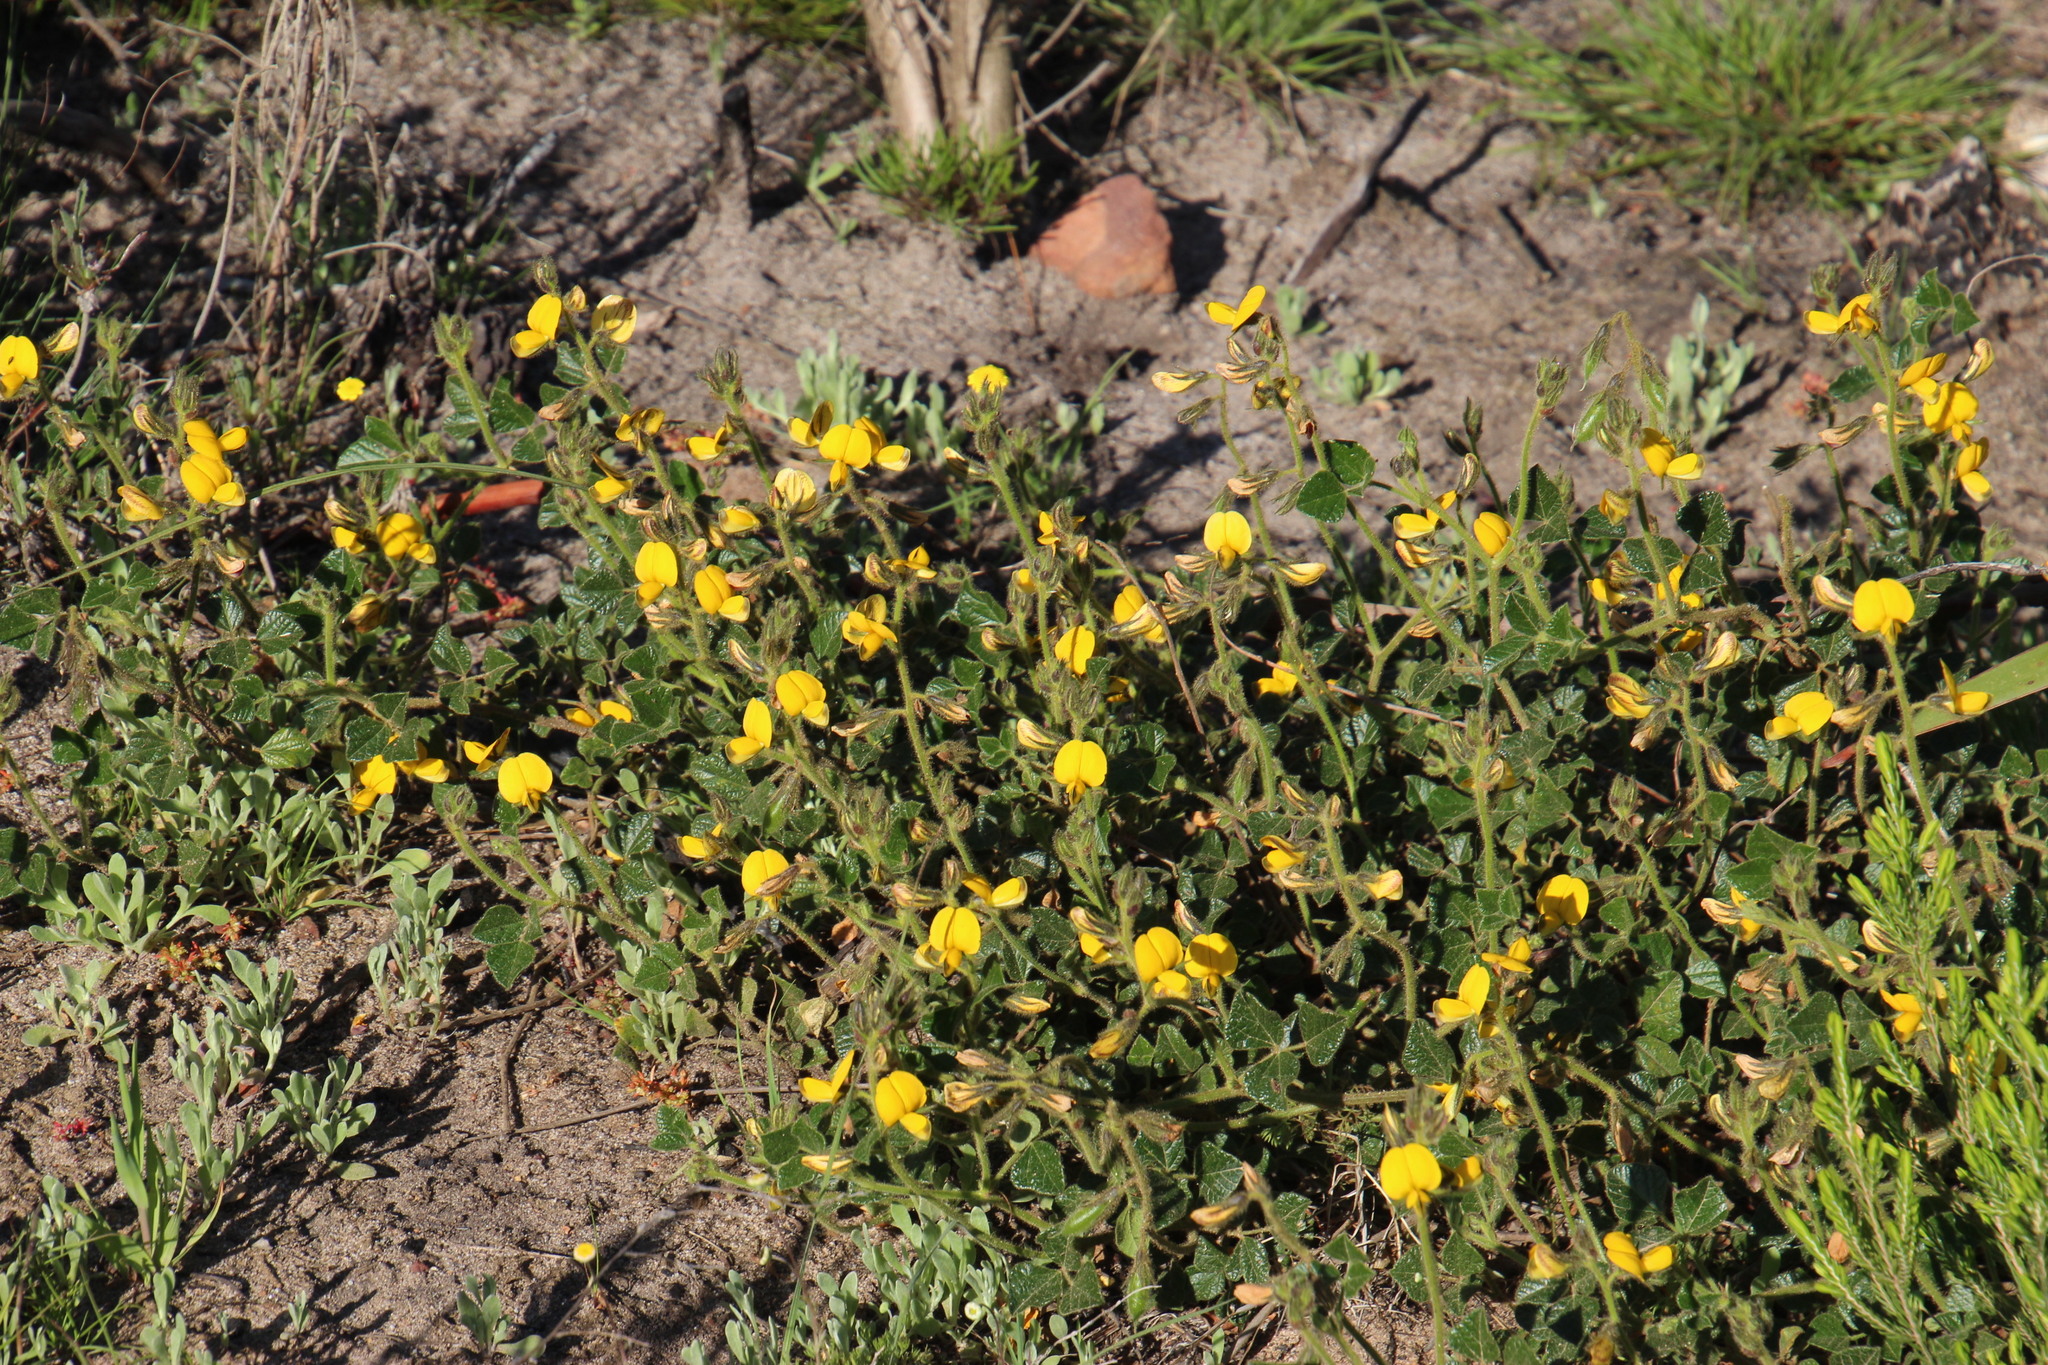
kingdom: Plantae
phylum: Tracheophyta
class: Magnoliopsida
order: Fabales
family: Fabaceae
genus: Bolusafra
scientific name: Bolusafra bituminosa
